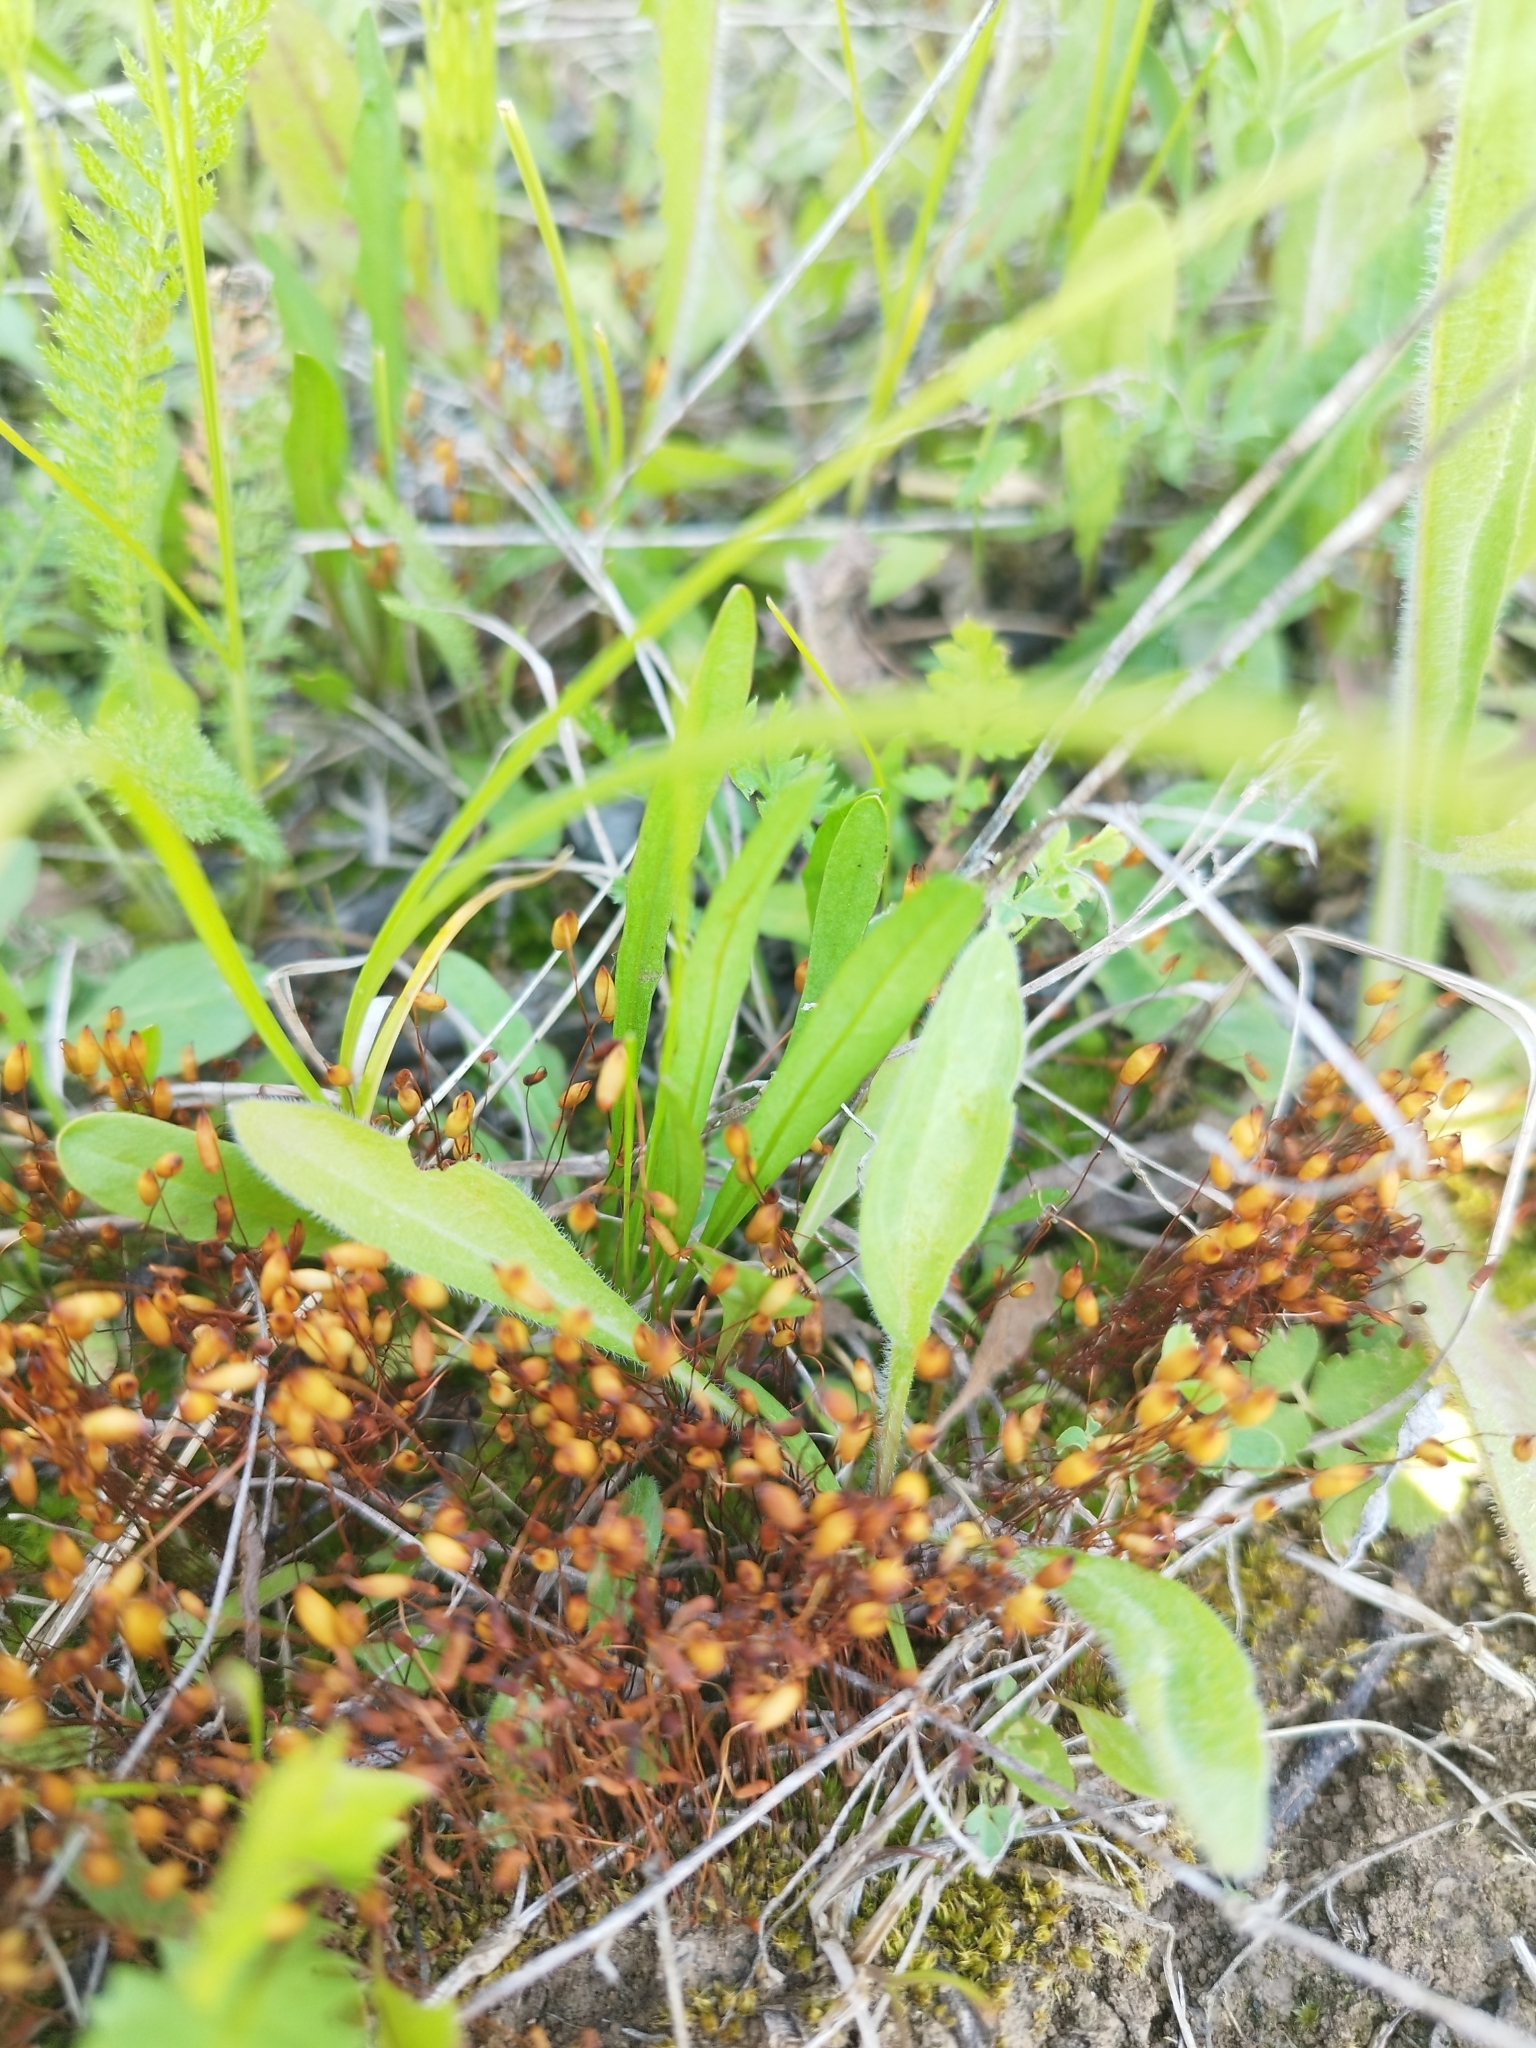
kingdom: Plantae
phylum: Bryophyta
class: Bryopsida
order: Funariales
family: Funariaceae
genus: Funaria
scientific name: Funaria hygrometrica
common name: Common cord moss
